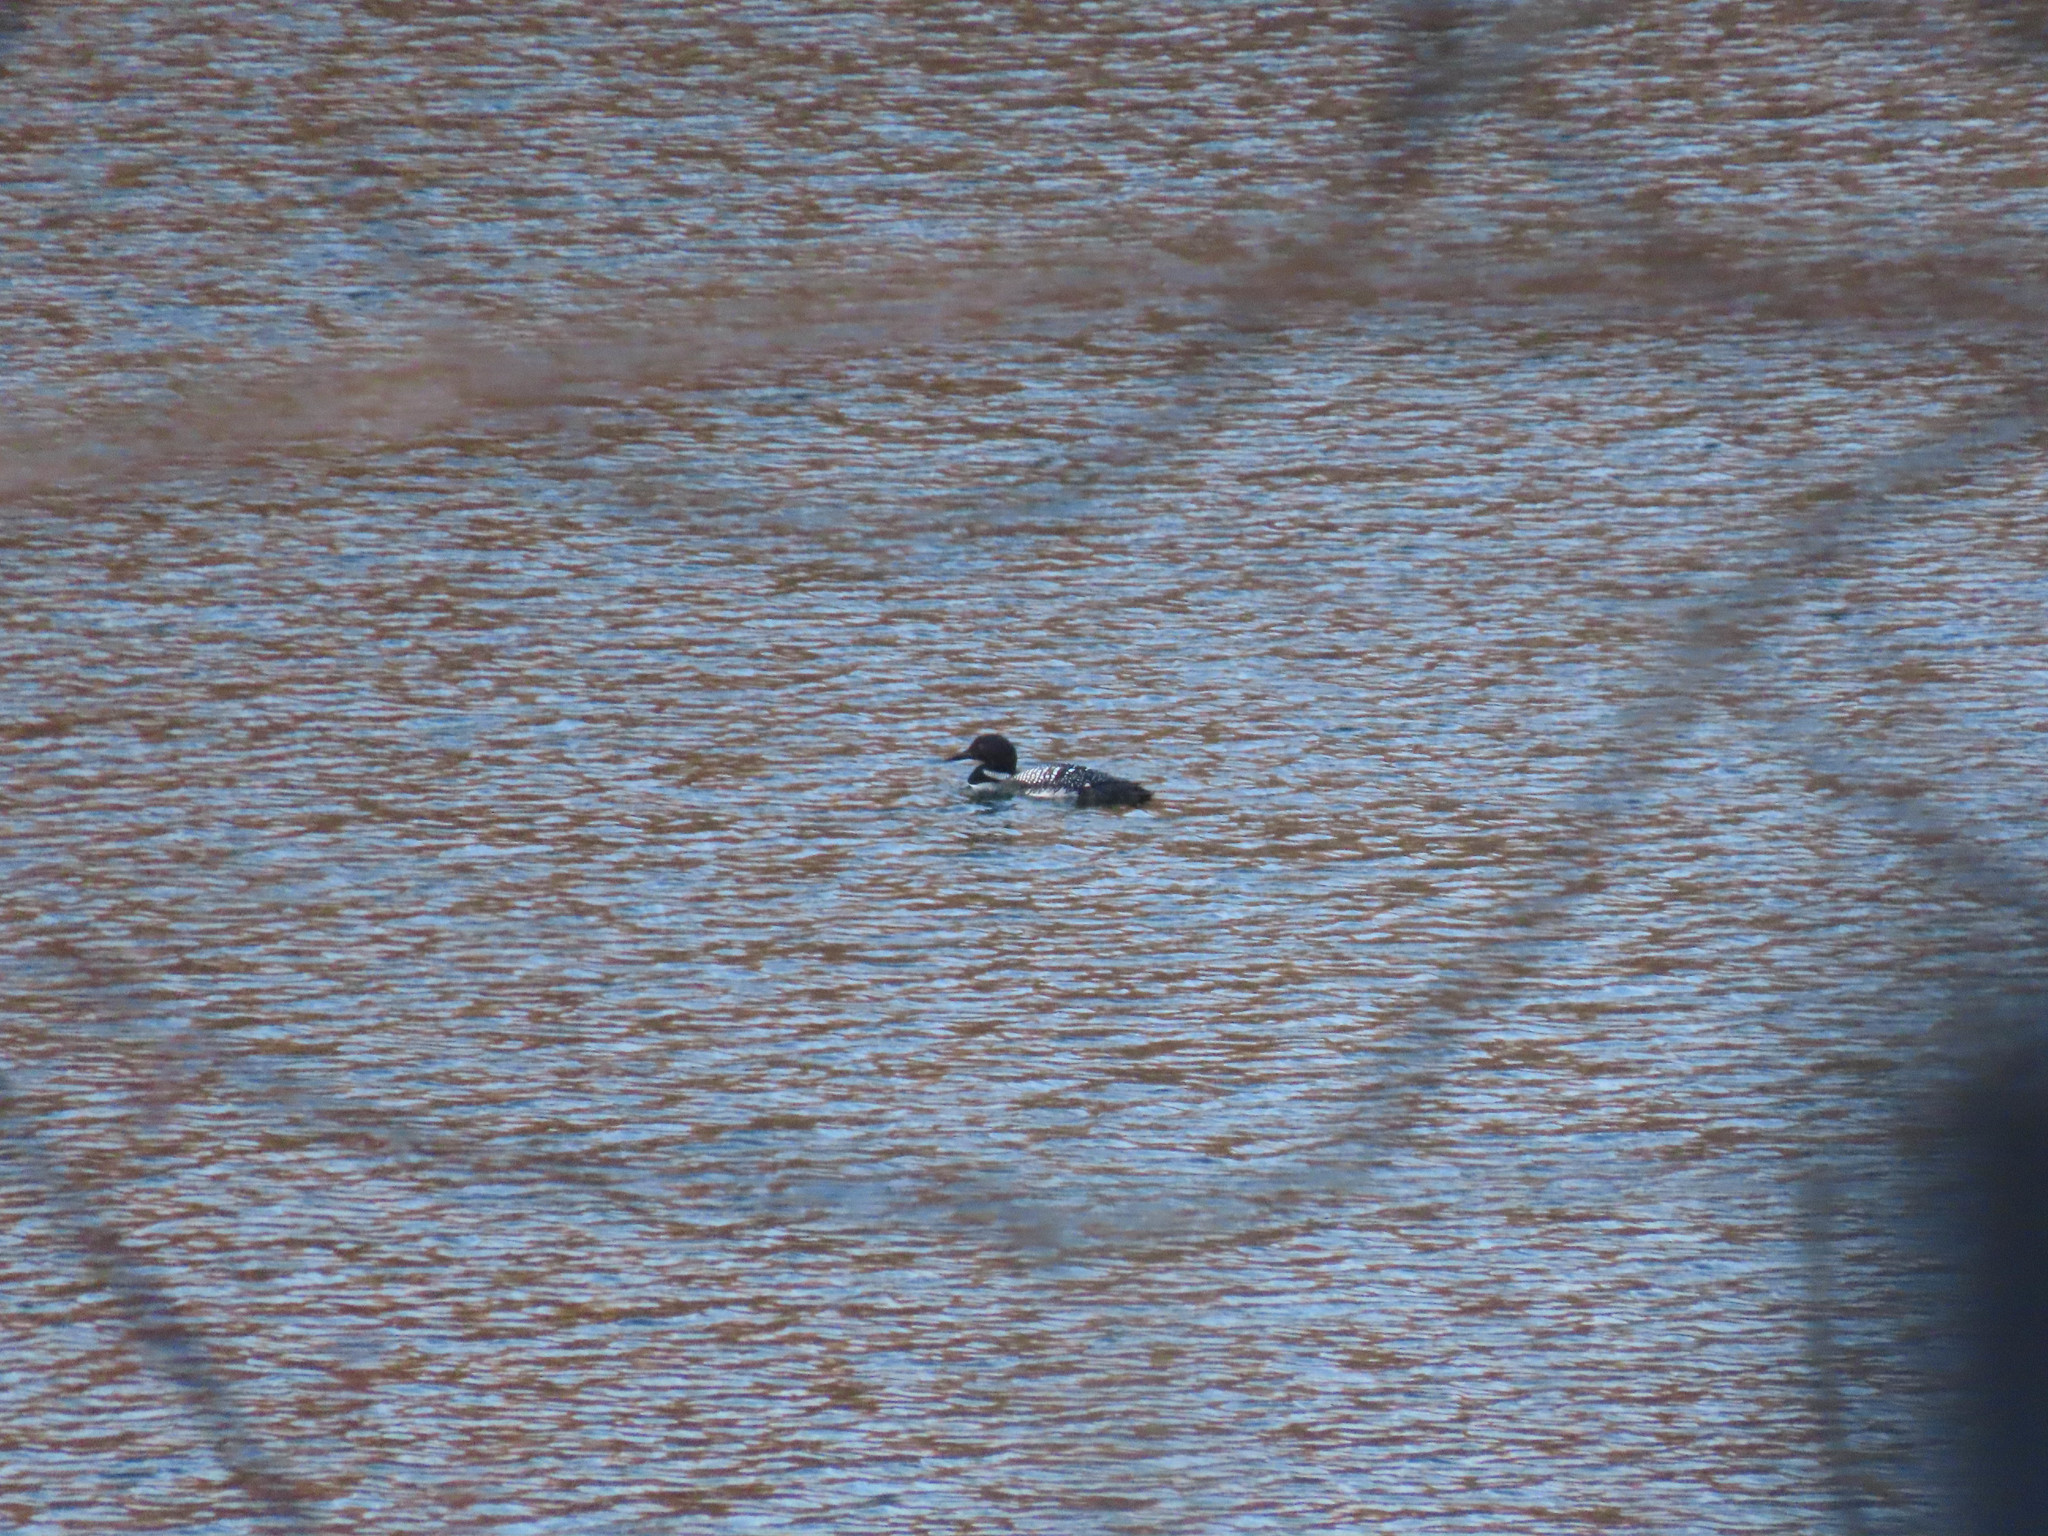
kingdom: Animalia
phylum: Chordata
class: Aves
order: Gaviiformes
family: Gaviidae
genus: Gavia
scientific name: Gavia immer
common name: Common loon
